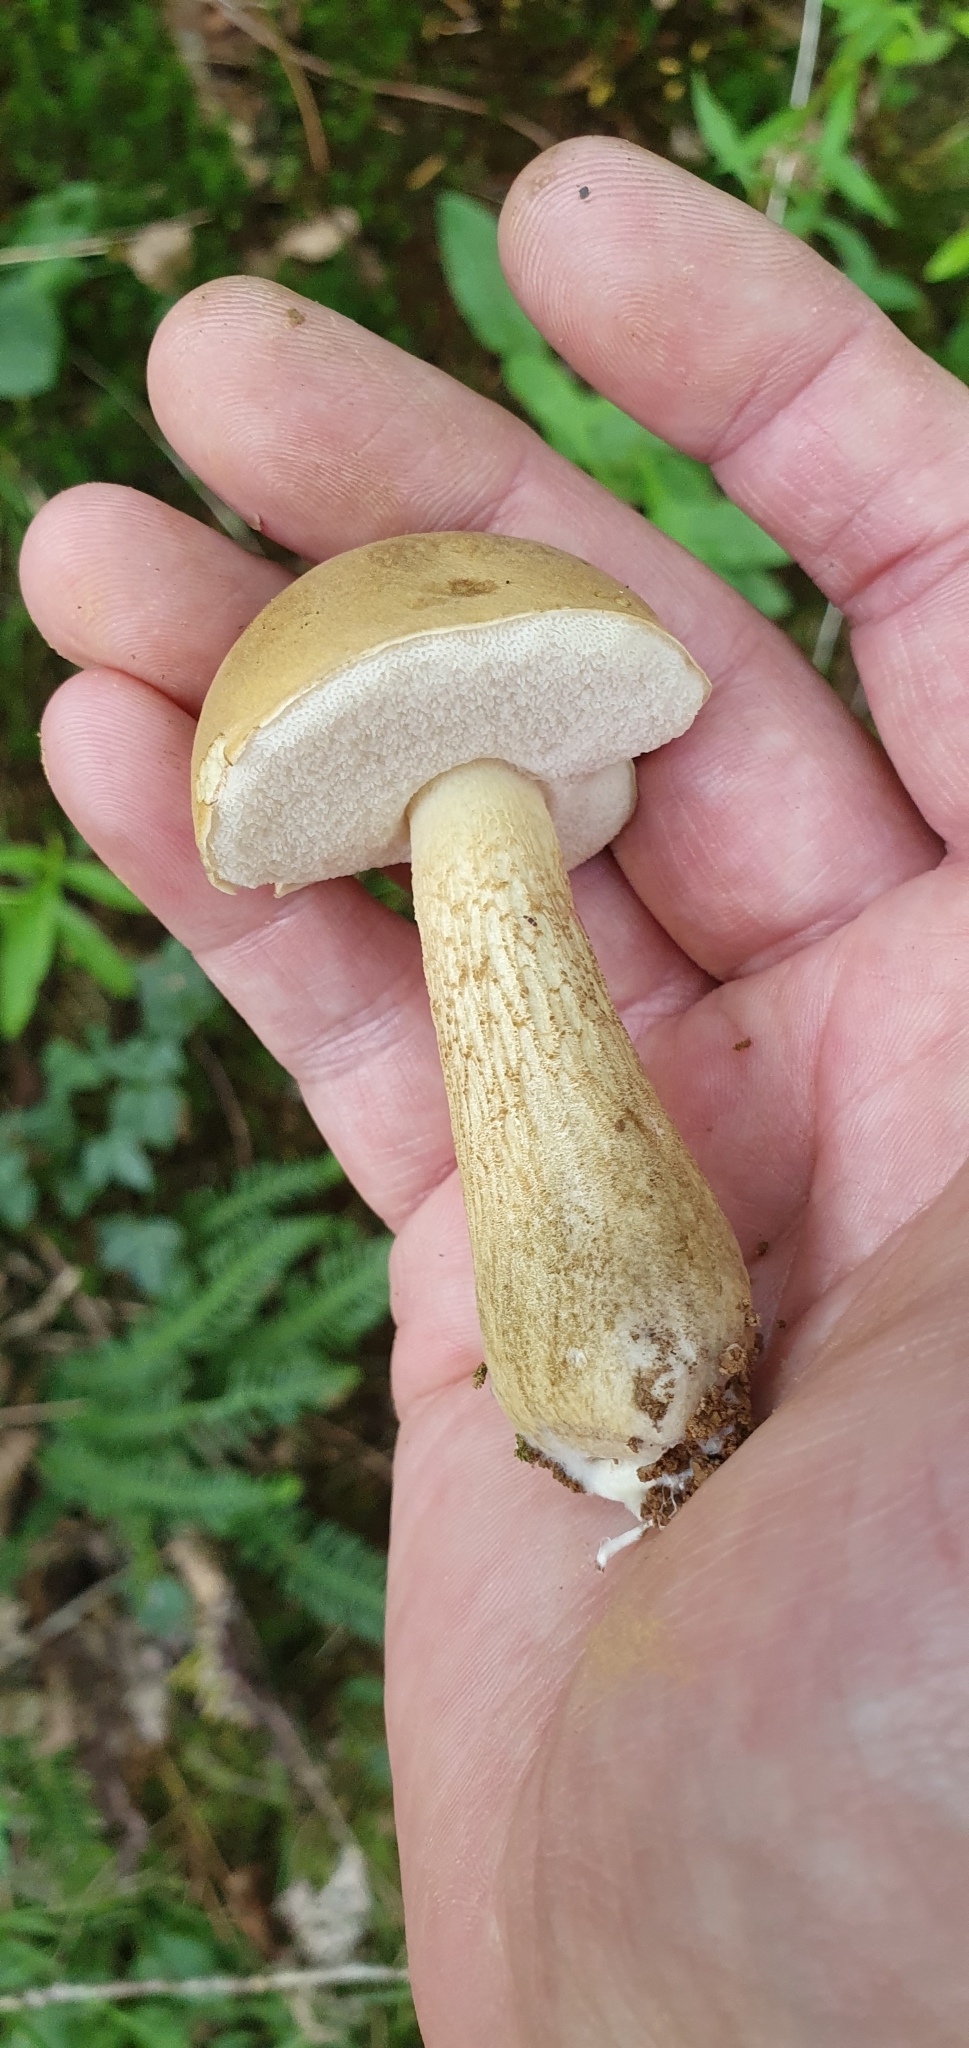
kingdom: Fungi
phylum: Basidiomycota
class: Agaricomycetes
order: Boletales
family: Boletaceae
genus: Tylopilus
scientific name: Tylopilus felleus
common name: Bitter bolete
